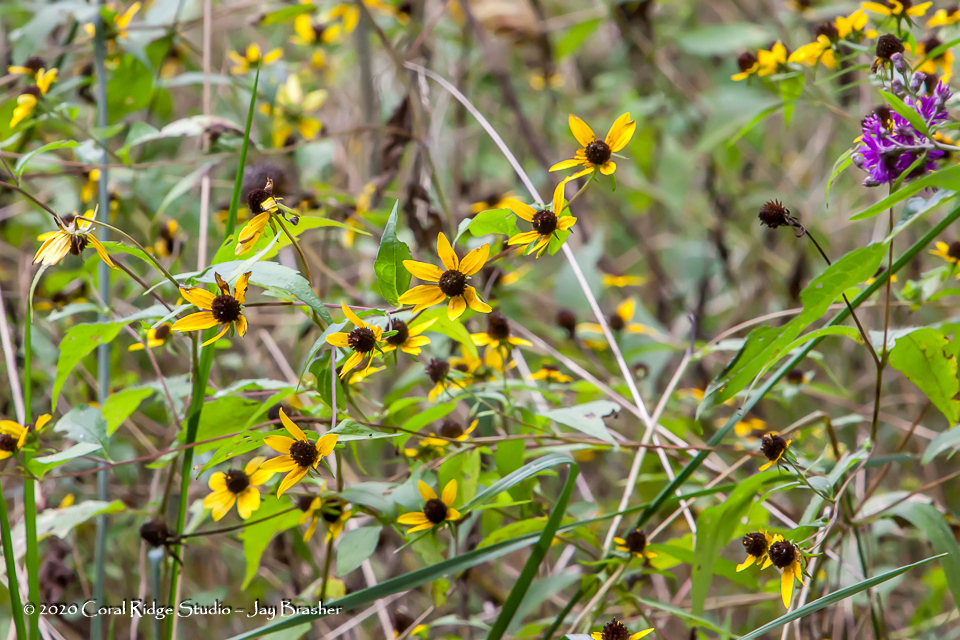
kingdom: Plantae
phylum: Tracheophyta
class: Magnoliopsida
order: Asterales
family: Asteraceae
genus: Rudbeckia
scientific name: Rudbeckia triloba
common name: Thin-leaved coneflower
